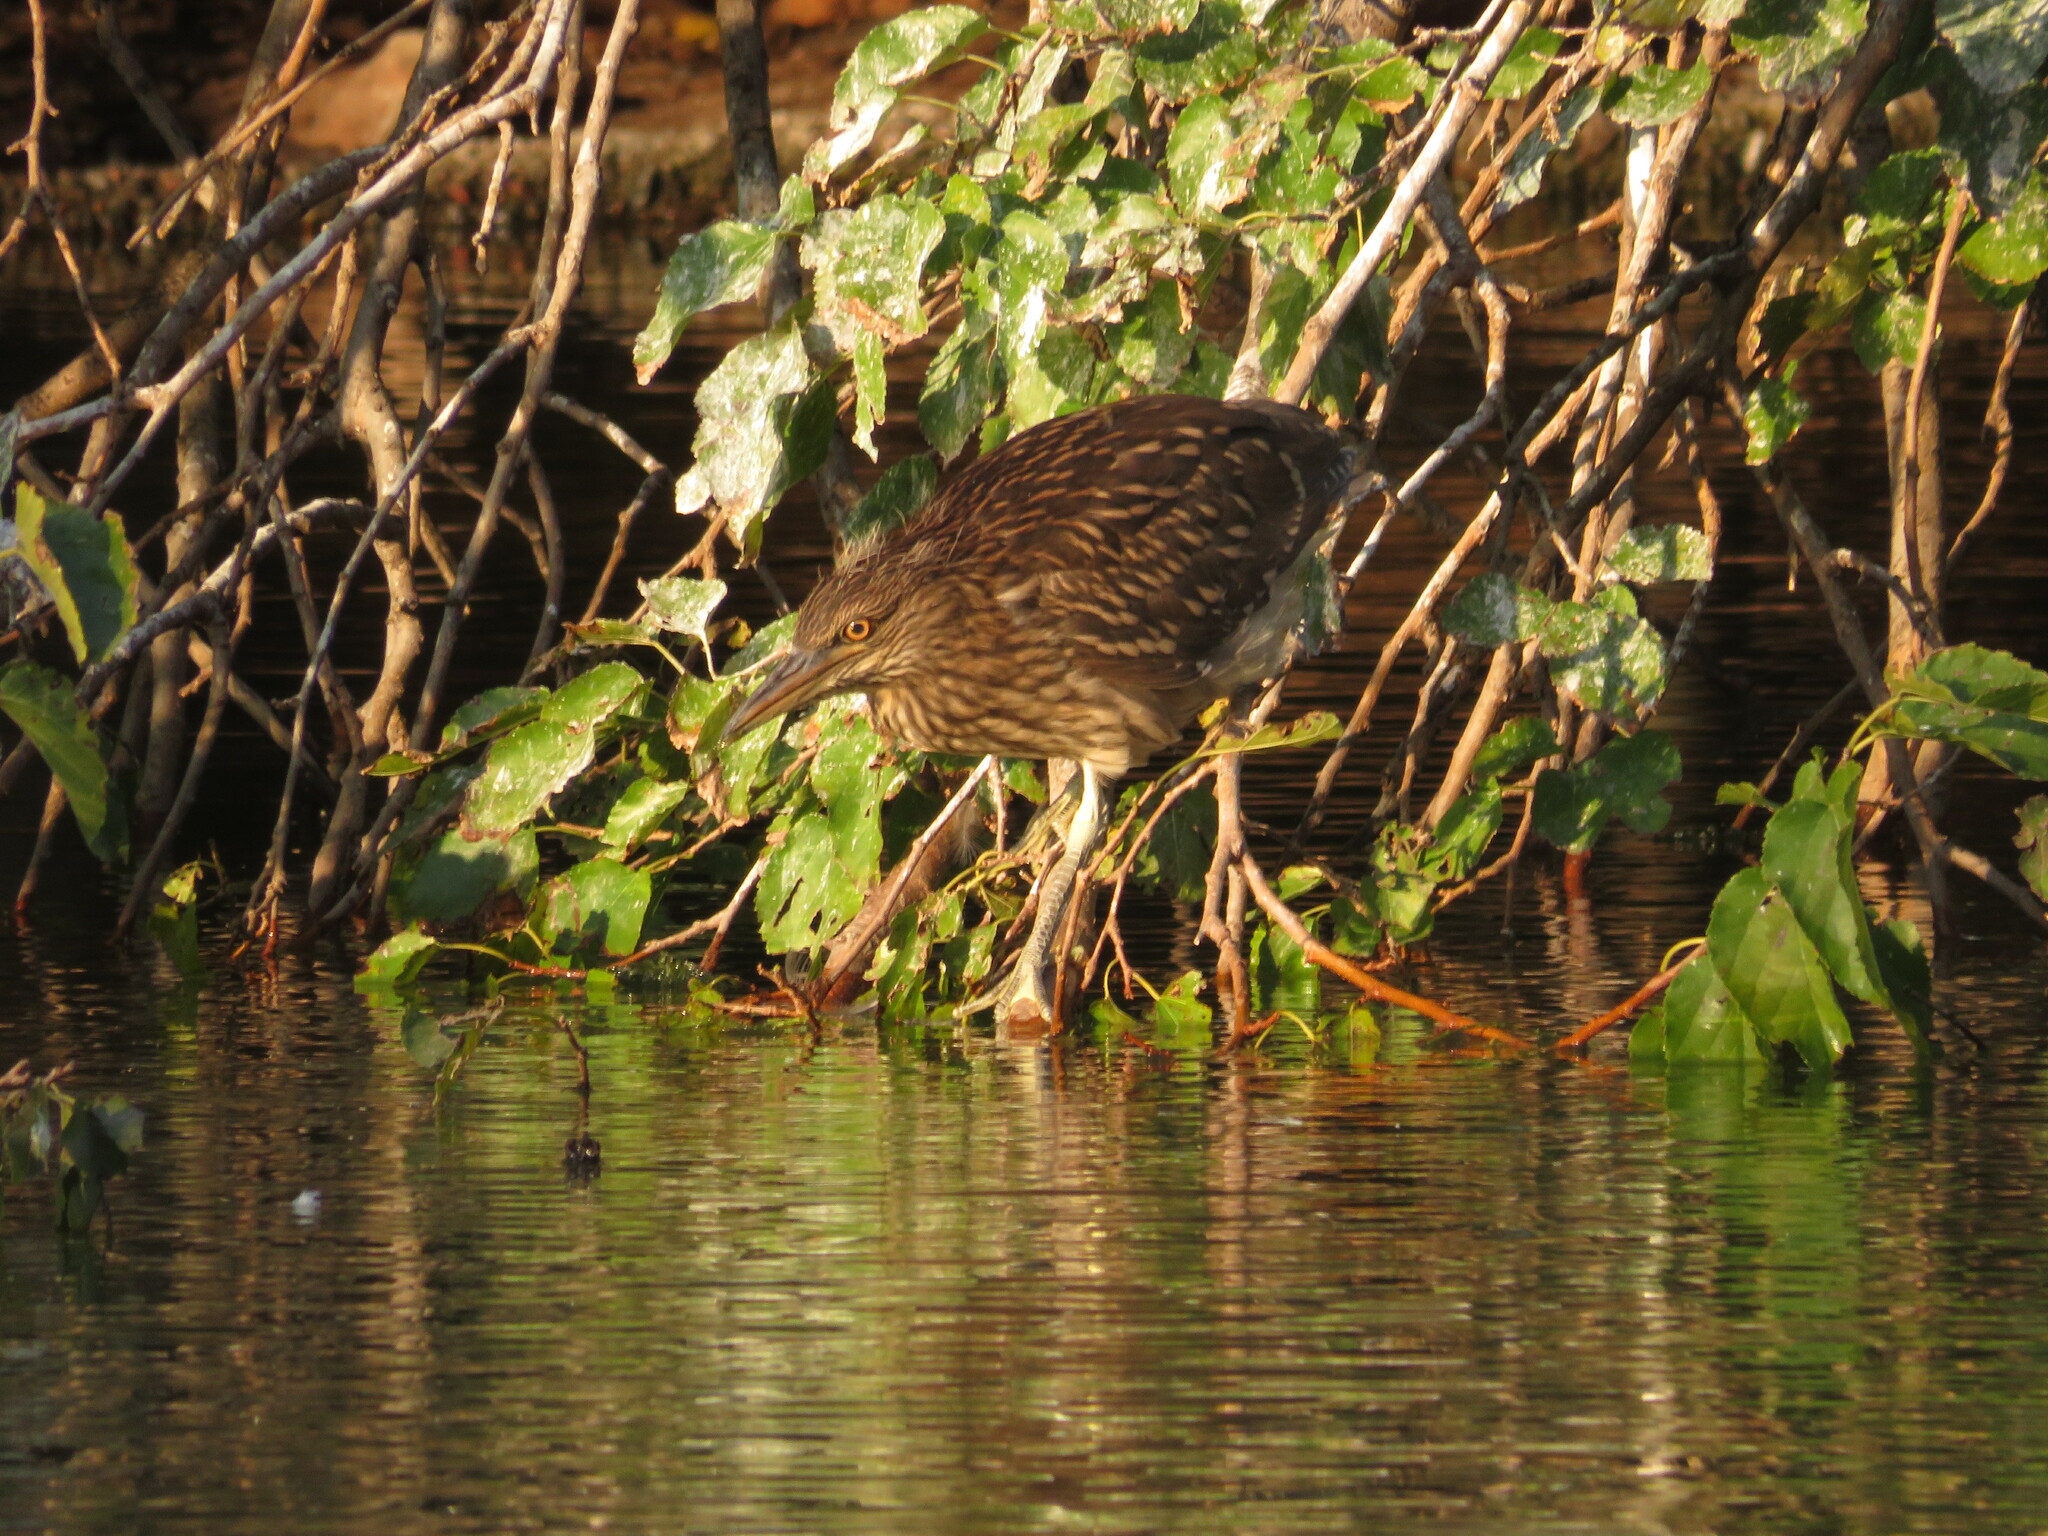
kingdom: Animalia
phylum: Chordata
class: Aves
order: Pelecaniformes
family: Ardeidae
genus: Nycticorax
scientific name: Nycticorax nycticorax
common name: Black-crowned night heron
